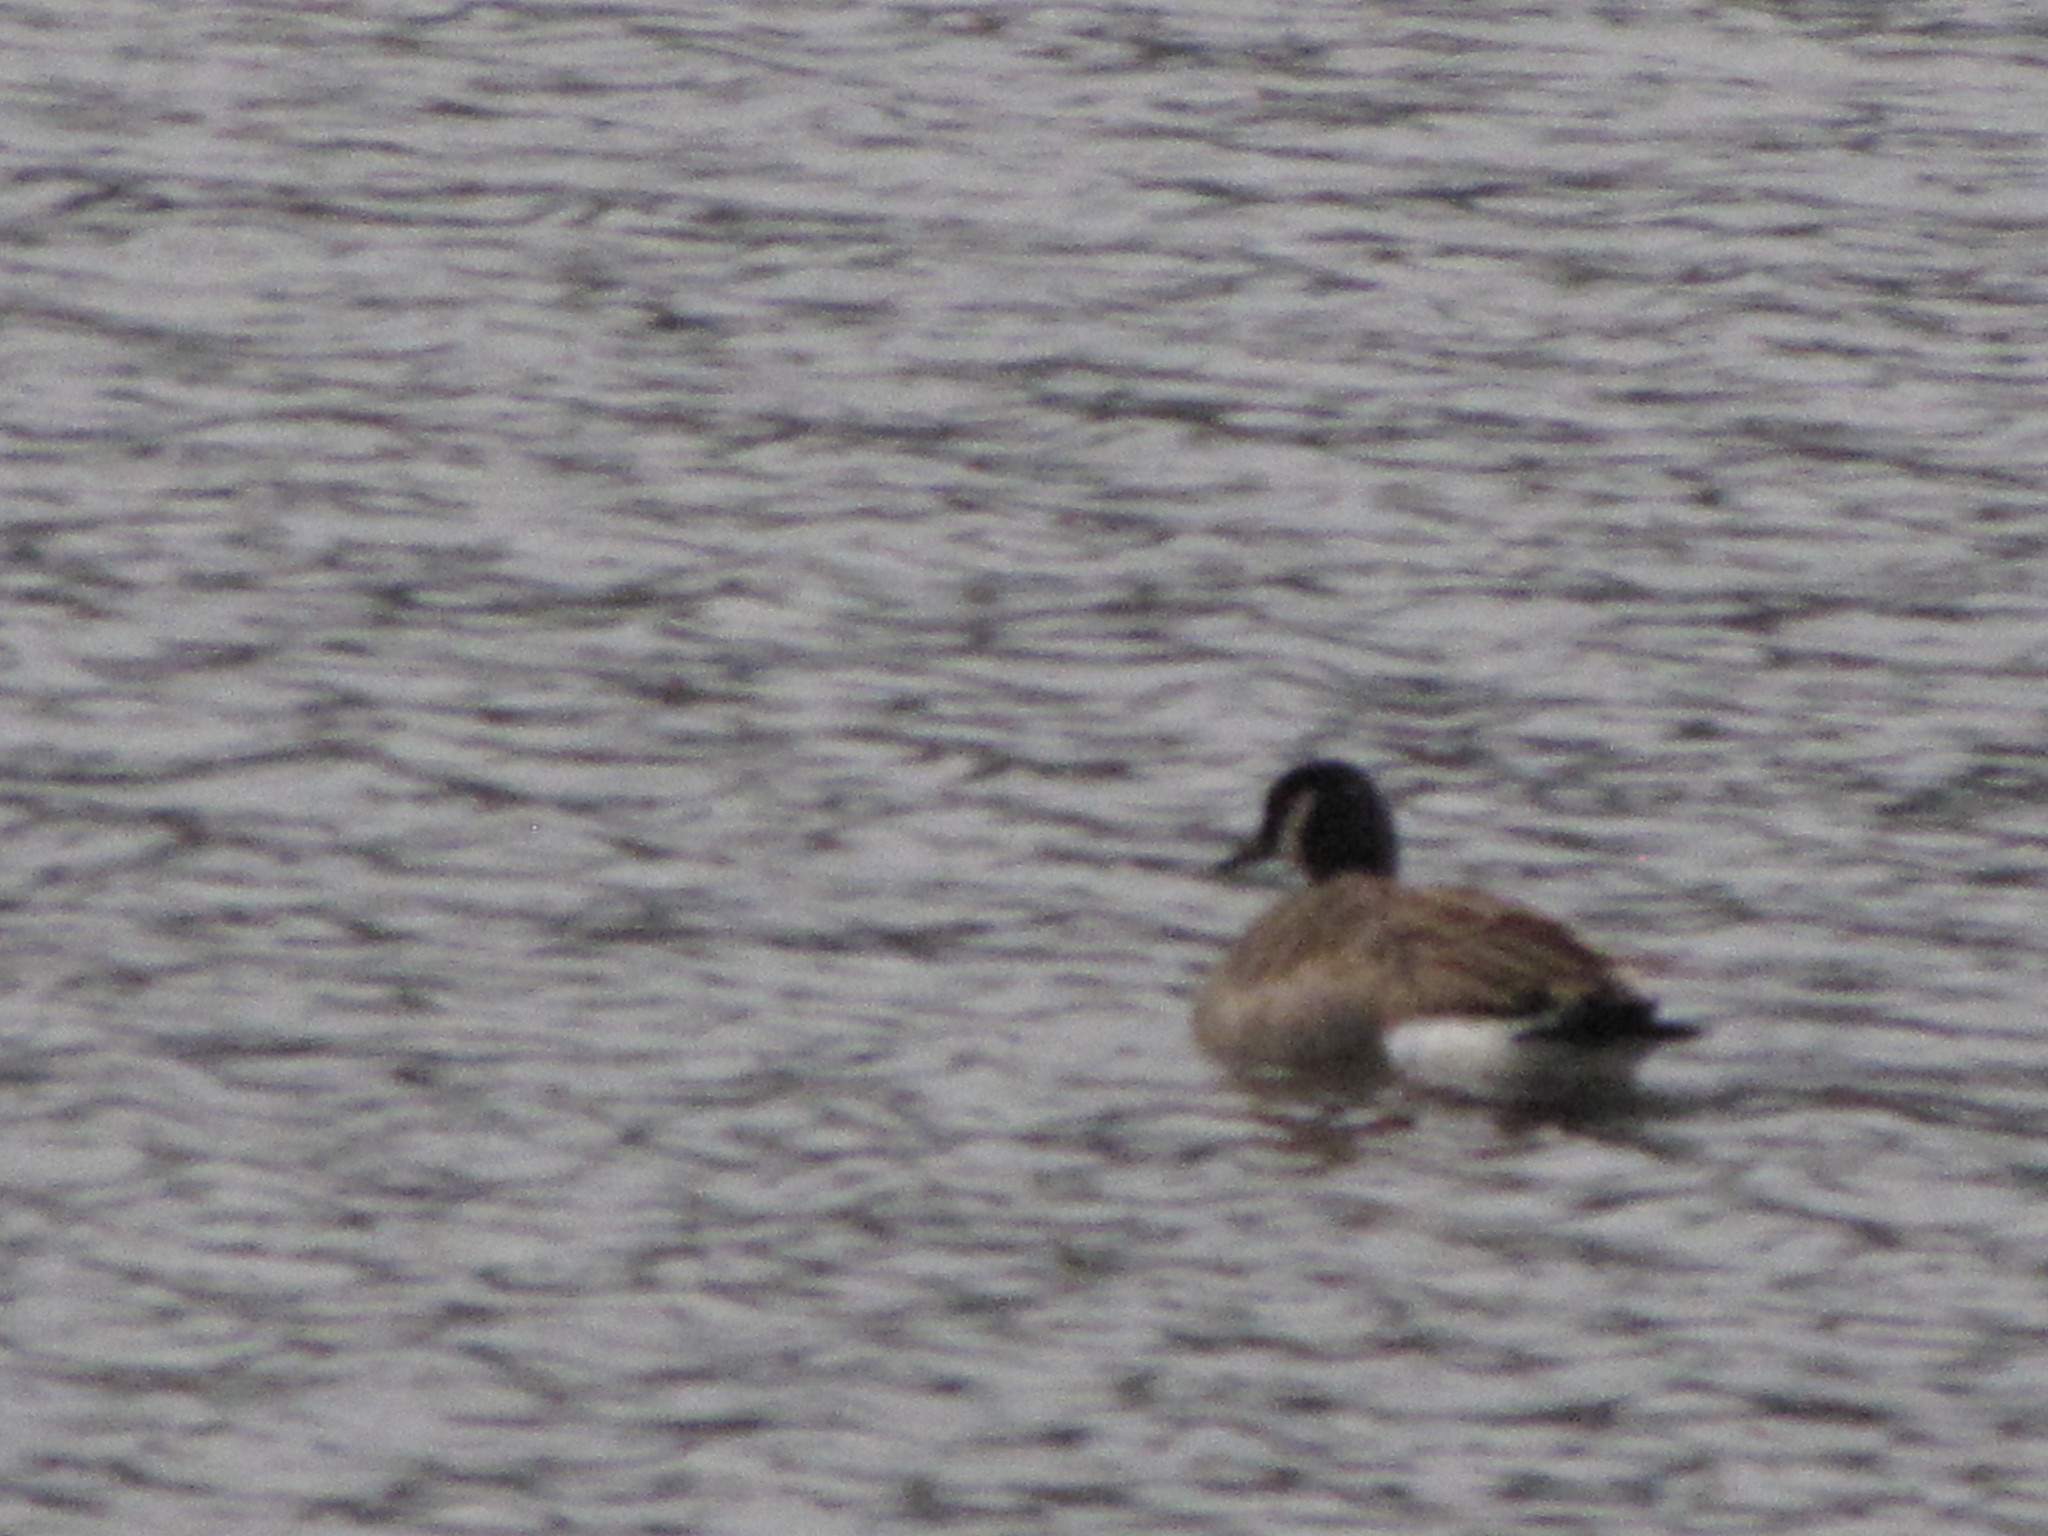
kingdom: Animalia
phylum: Chordata
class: Aves
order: Anseriformes
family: Anatidae
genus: Branta
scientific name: Branta canadensis
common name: Canada goose
